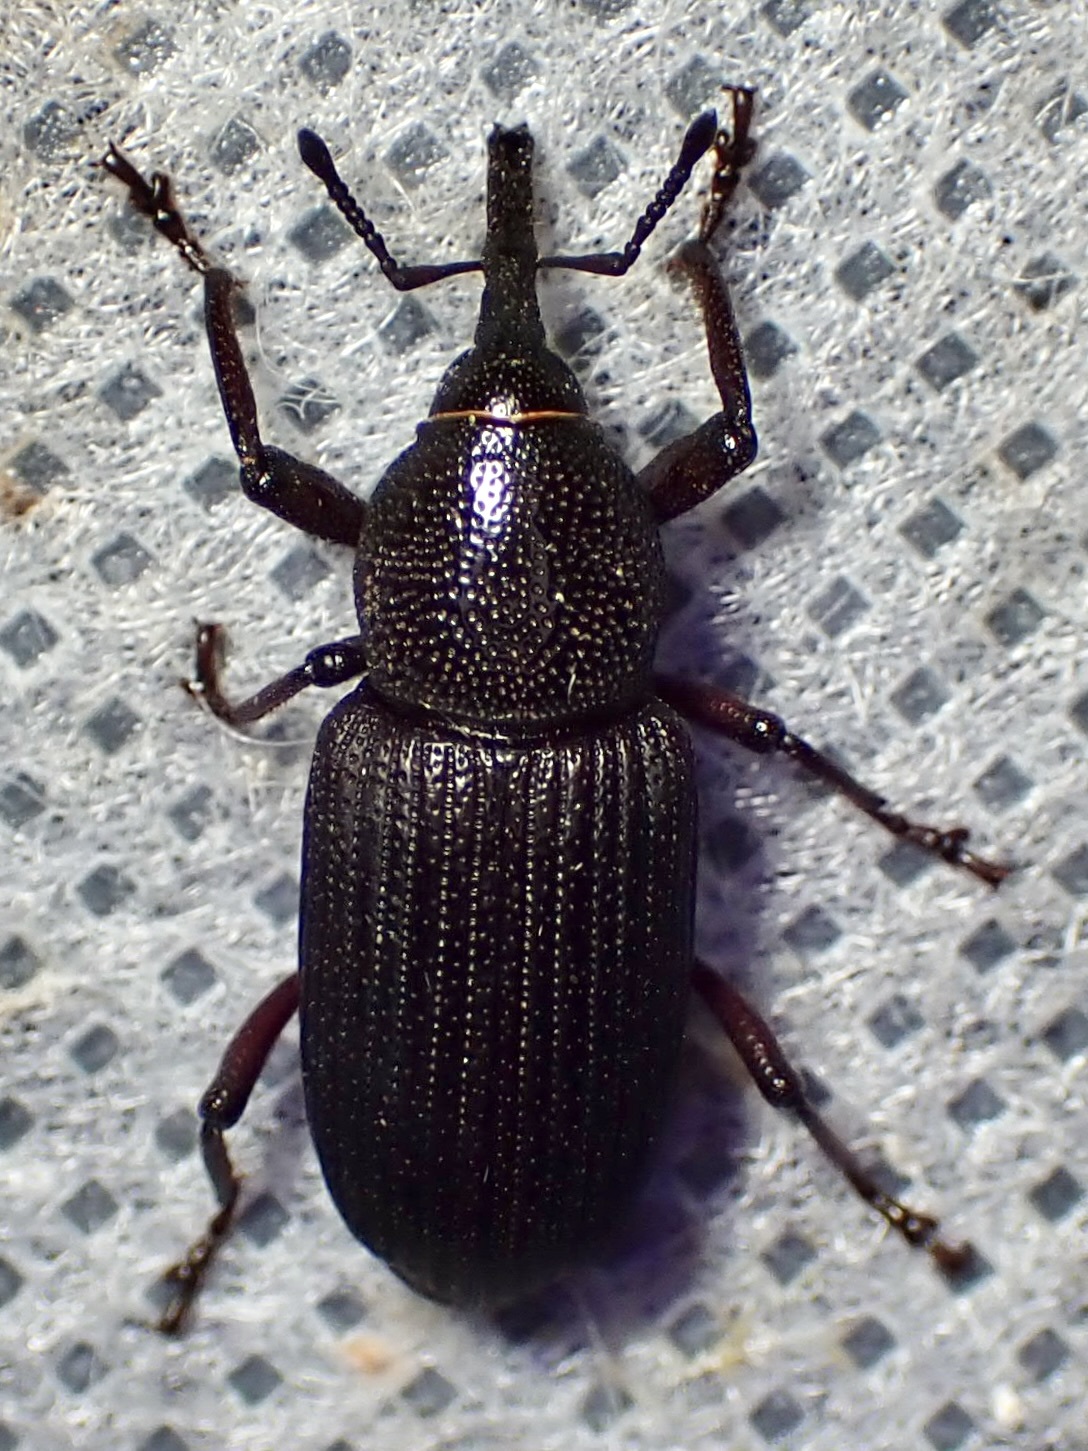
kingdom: Animalia
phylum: Arthropoda
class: Insecta
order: Coleoptera
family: Dryophthoridae
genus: Rhinostomus
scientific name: Rhinostomus
